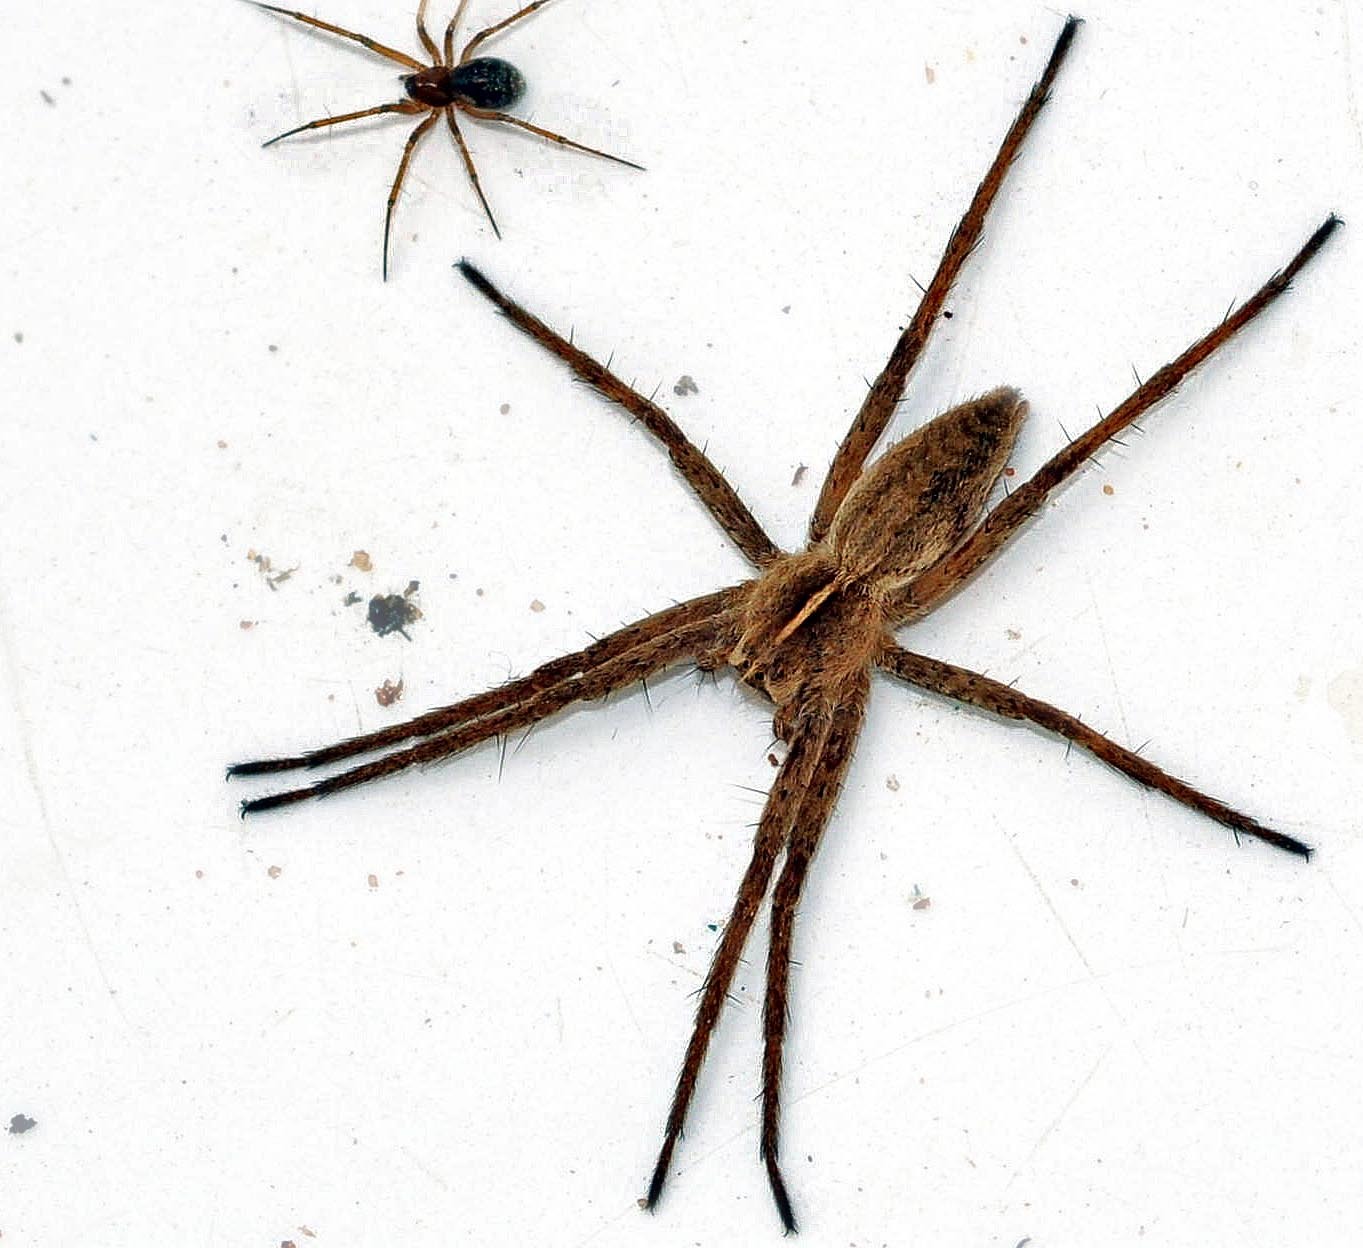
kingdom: Animalia
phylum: Arthropoda
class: Arachnida
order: Araneae
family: Pisauridae
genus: Pisaura
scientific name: Pisaura mirabilis
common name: Tent spider
